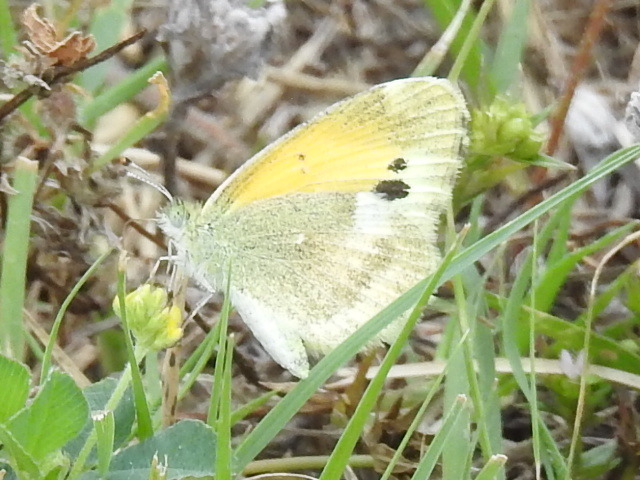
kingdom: Animalia
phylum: Arthropoda
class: Insecta
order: Lepidoptera
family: Pieridae
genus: Nathalis
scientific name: Nathalis iole
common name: Dainty sulphur
